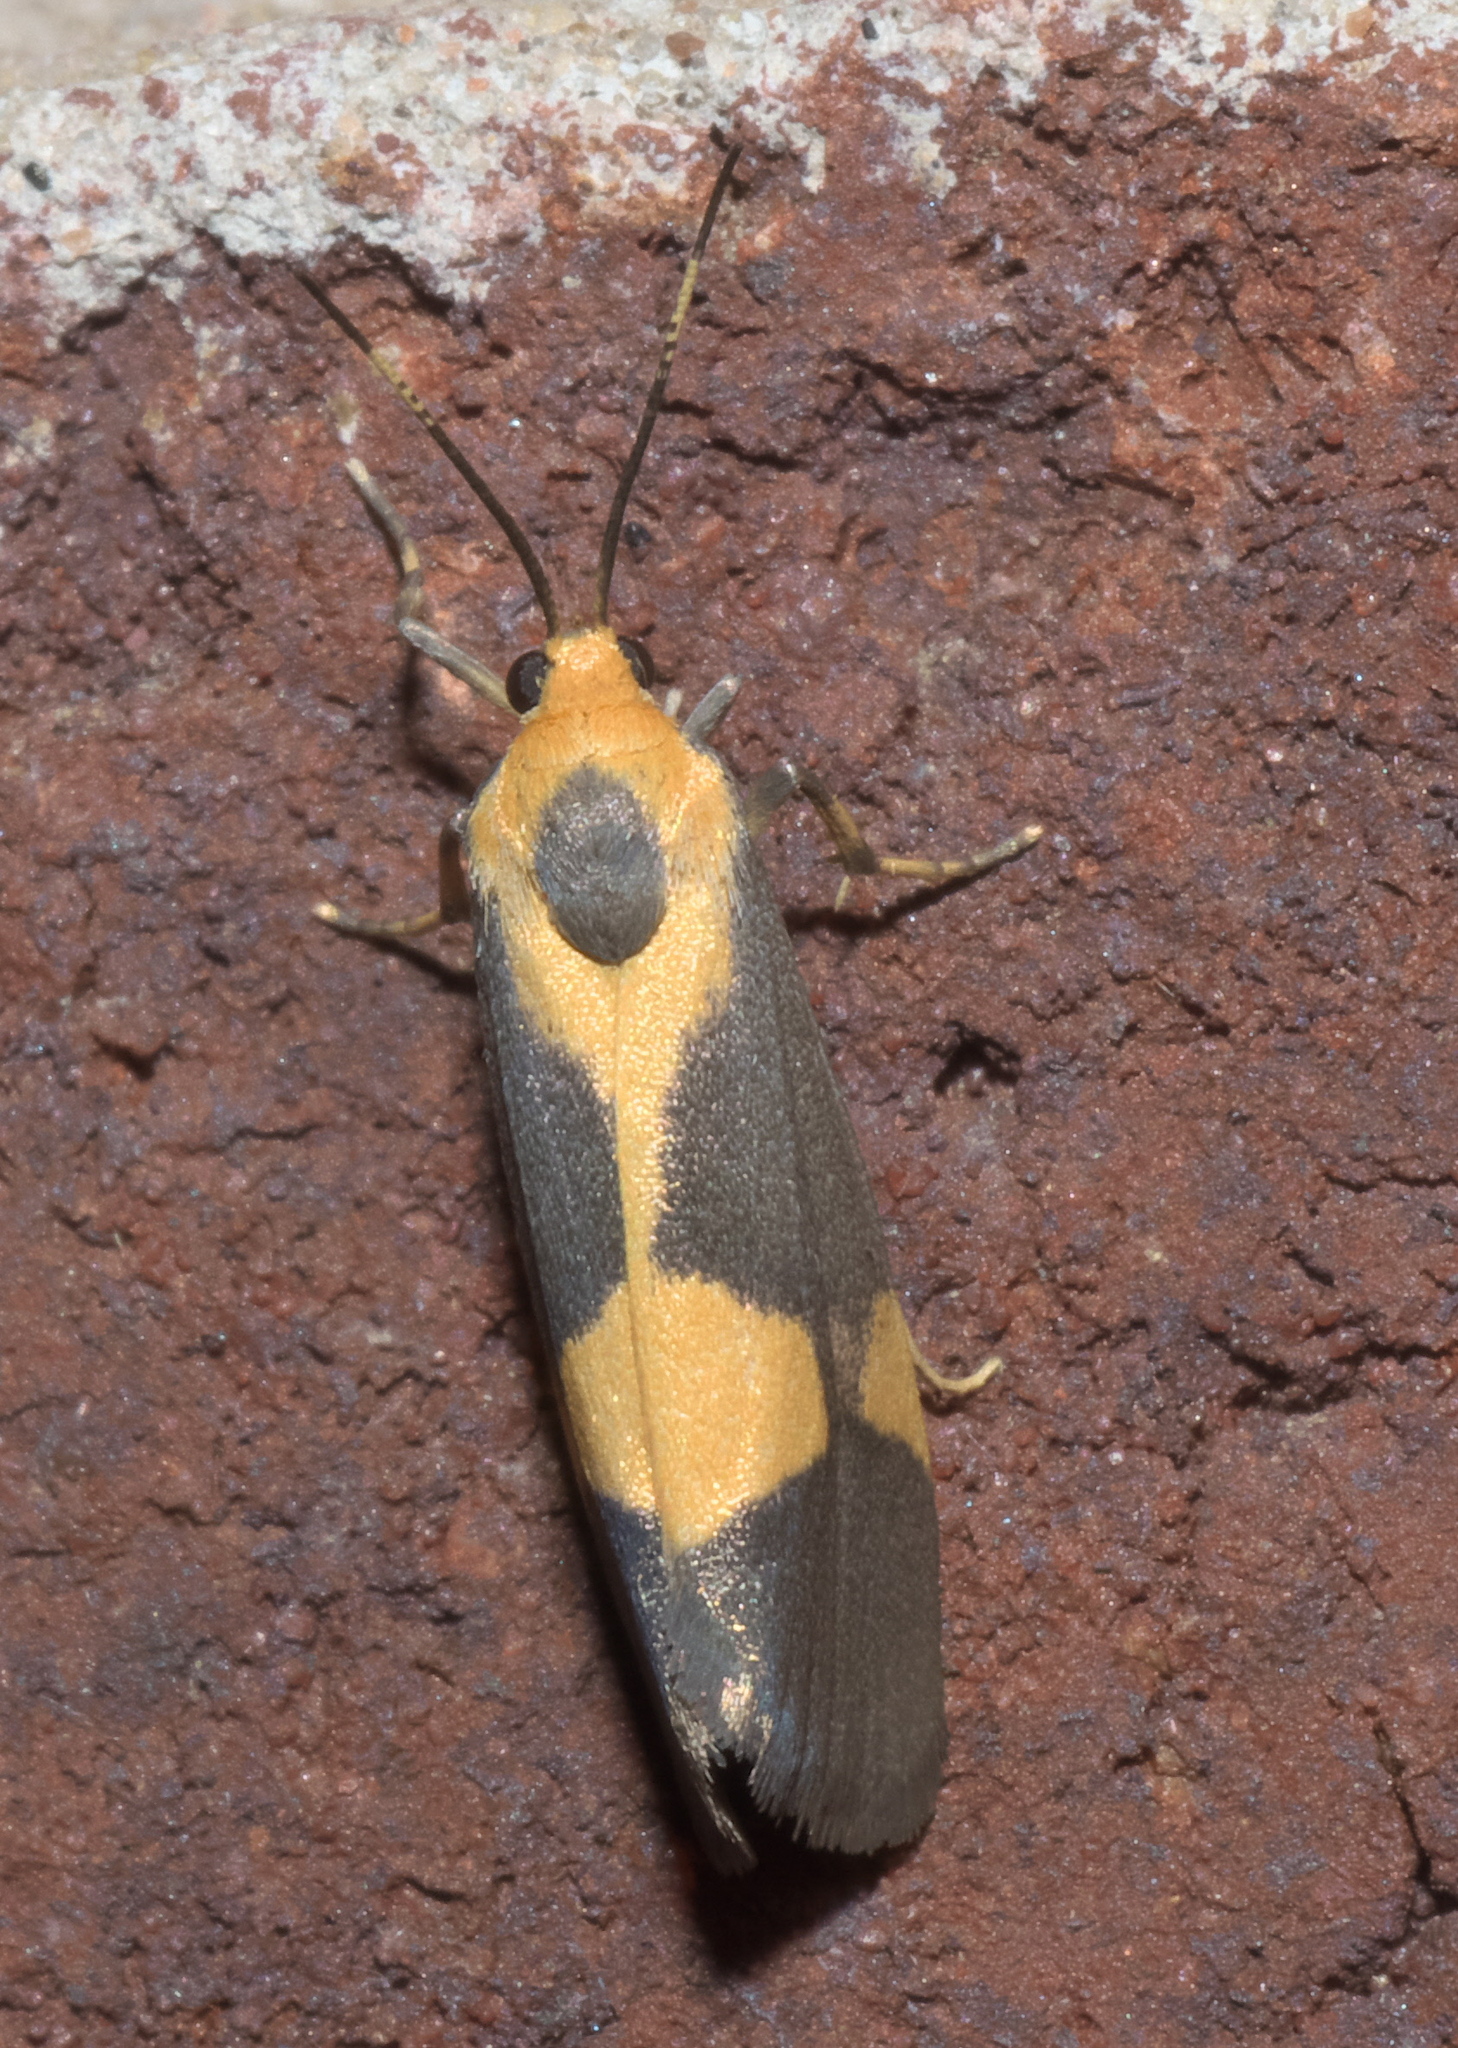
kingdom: Animalia
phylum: Arthropoda
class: Insecta
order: Lepidoptera
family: Erebidae
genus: Cisthene
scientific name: Cisthene unifascia
